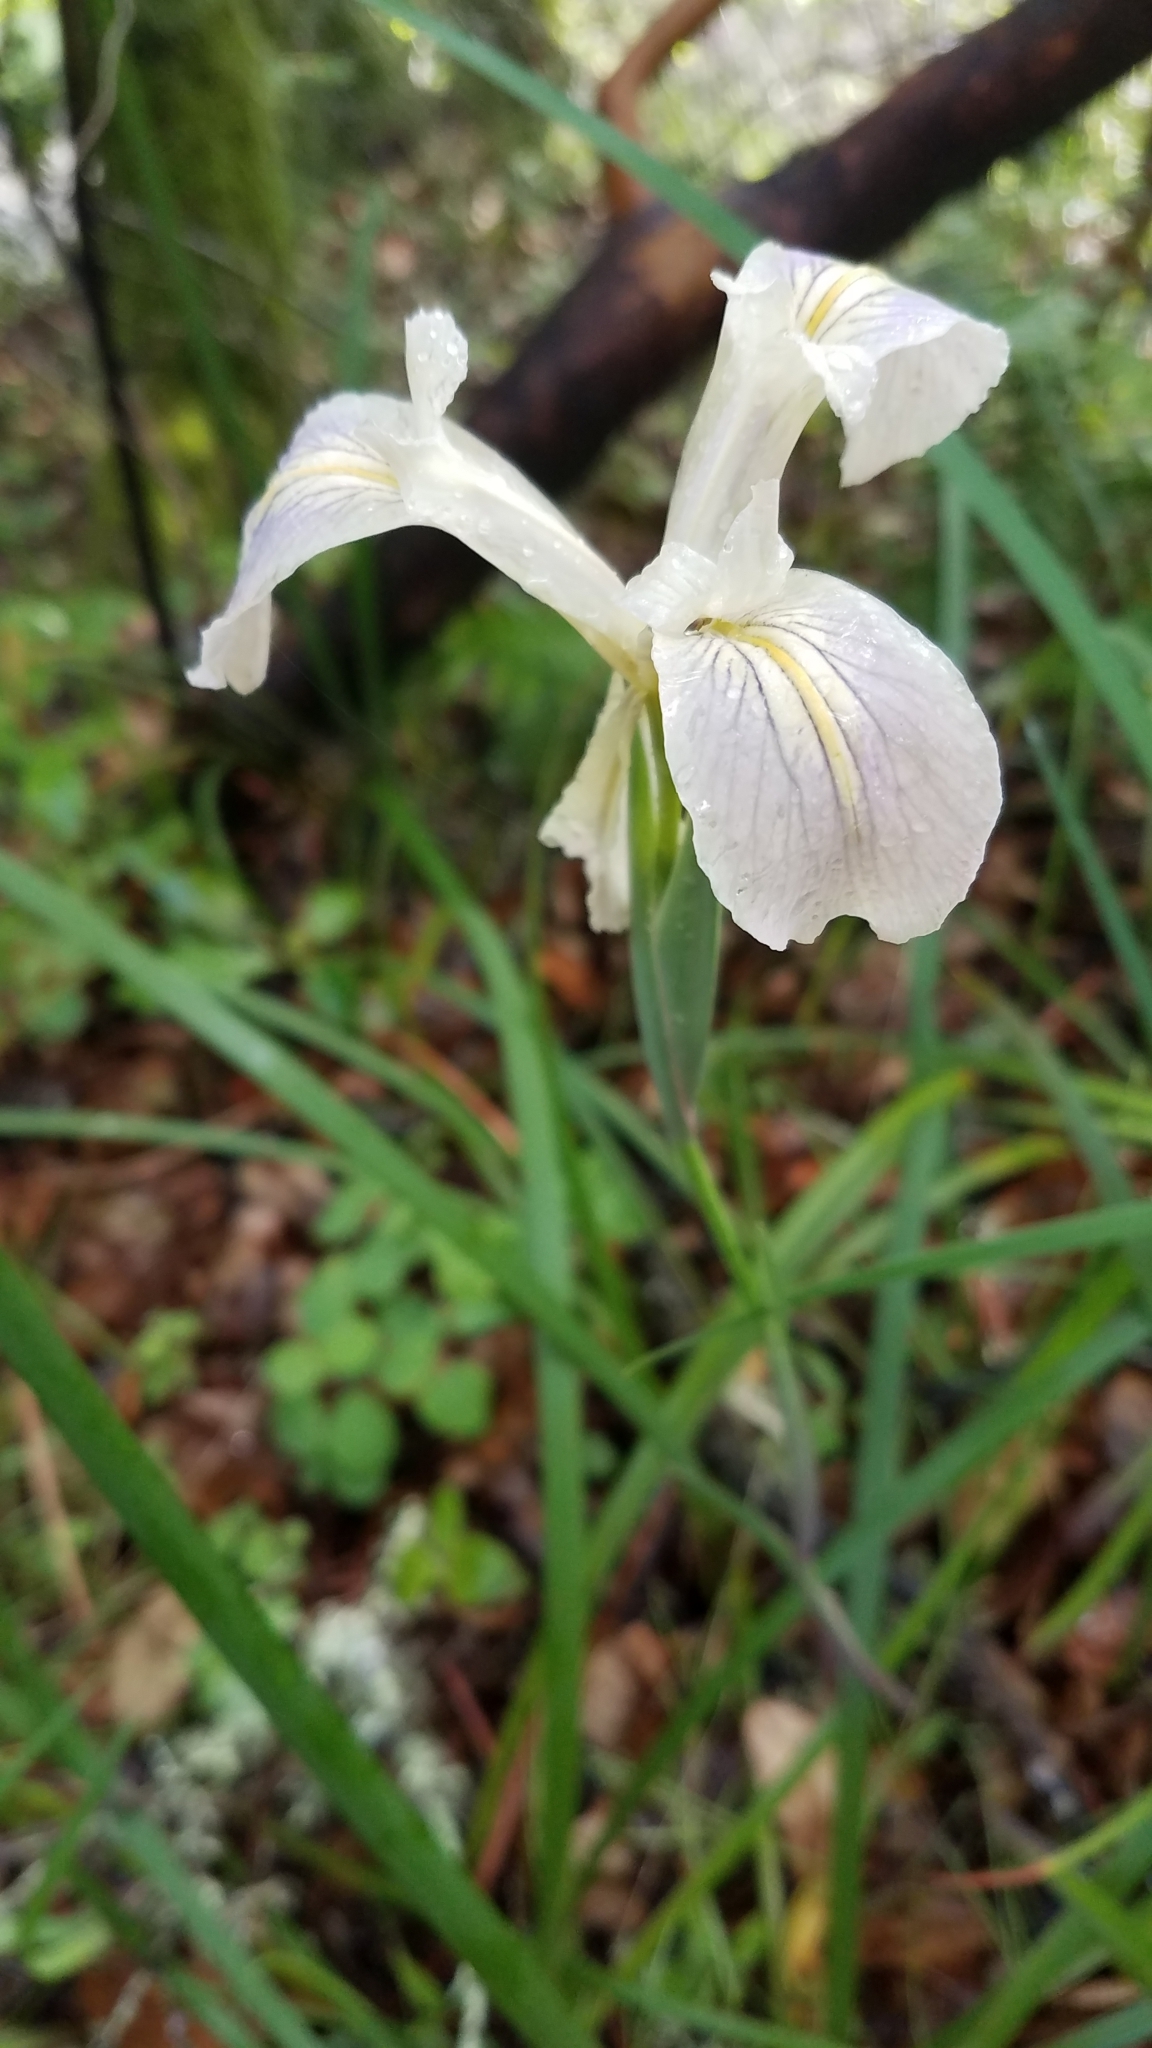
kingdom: Plantae
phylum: Tracheophyta
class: Liliopsida
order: Asparagales
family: Iridaceae
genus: Iris
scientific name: Iris douglasiana
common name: Marin iris
